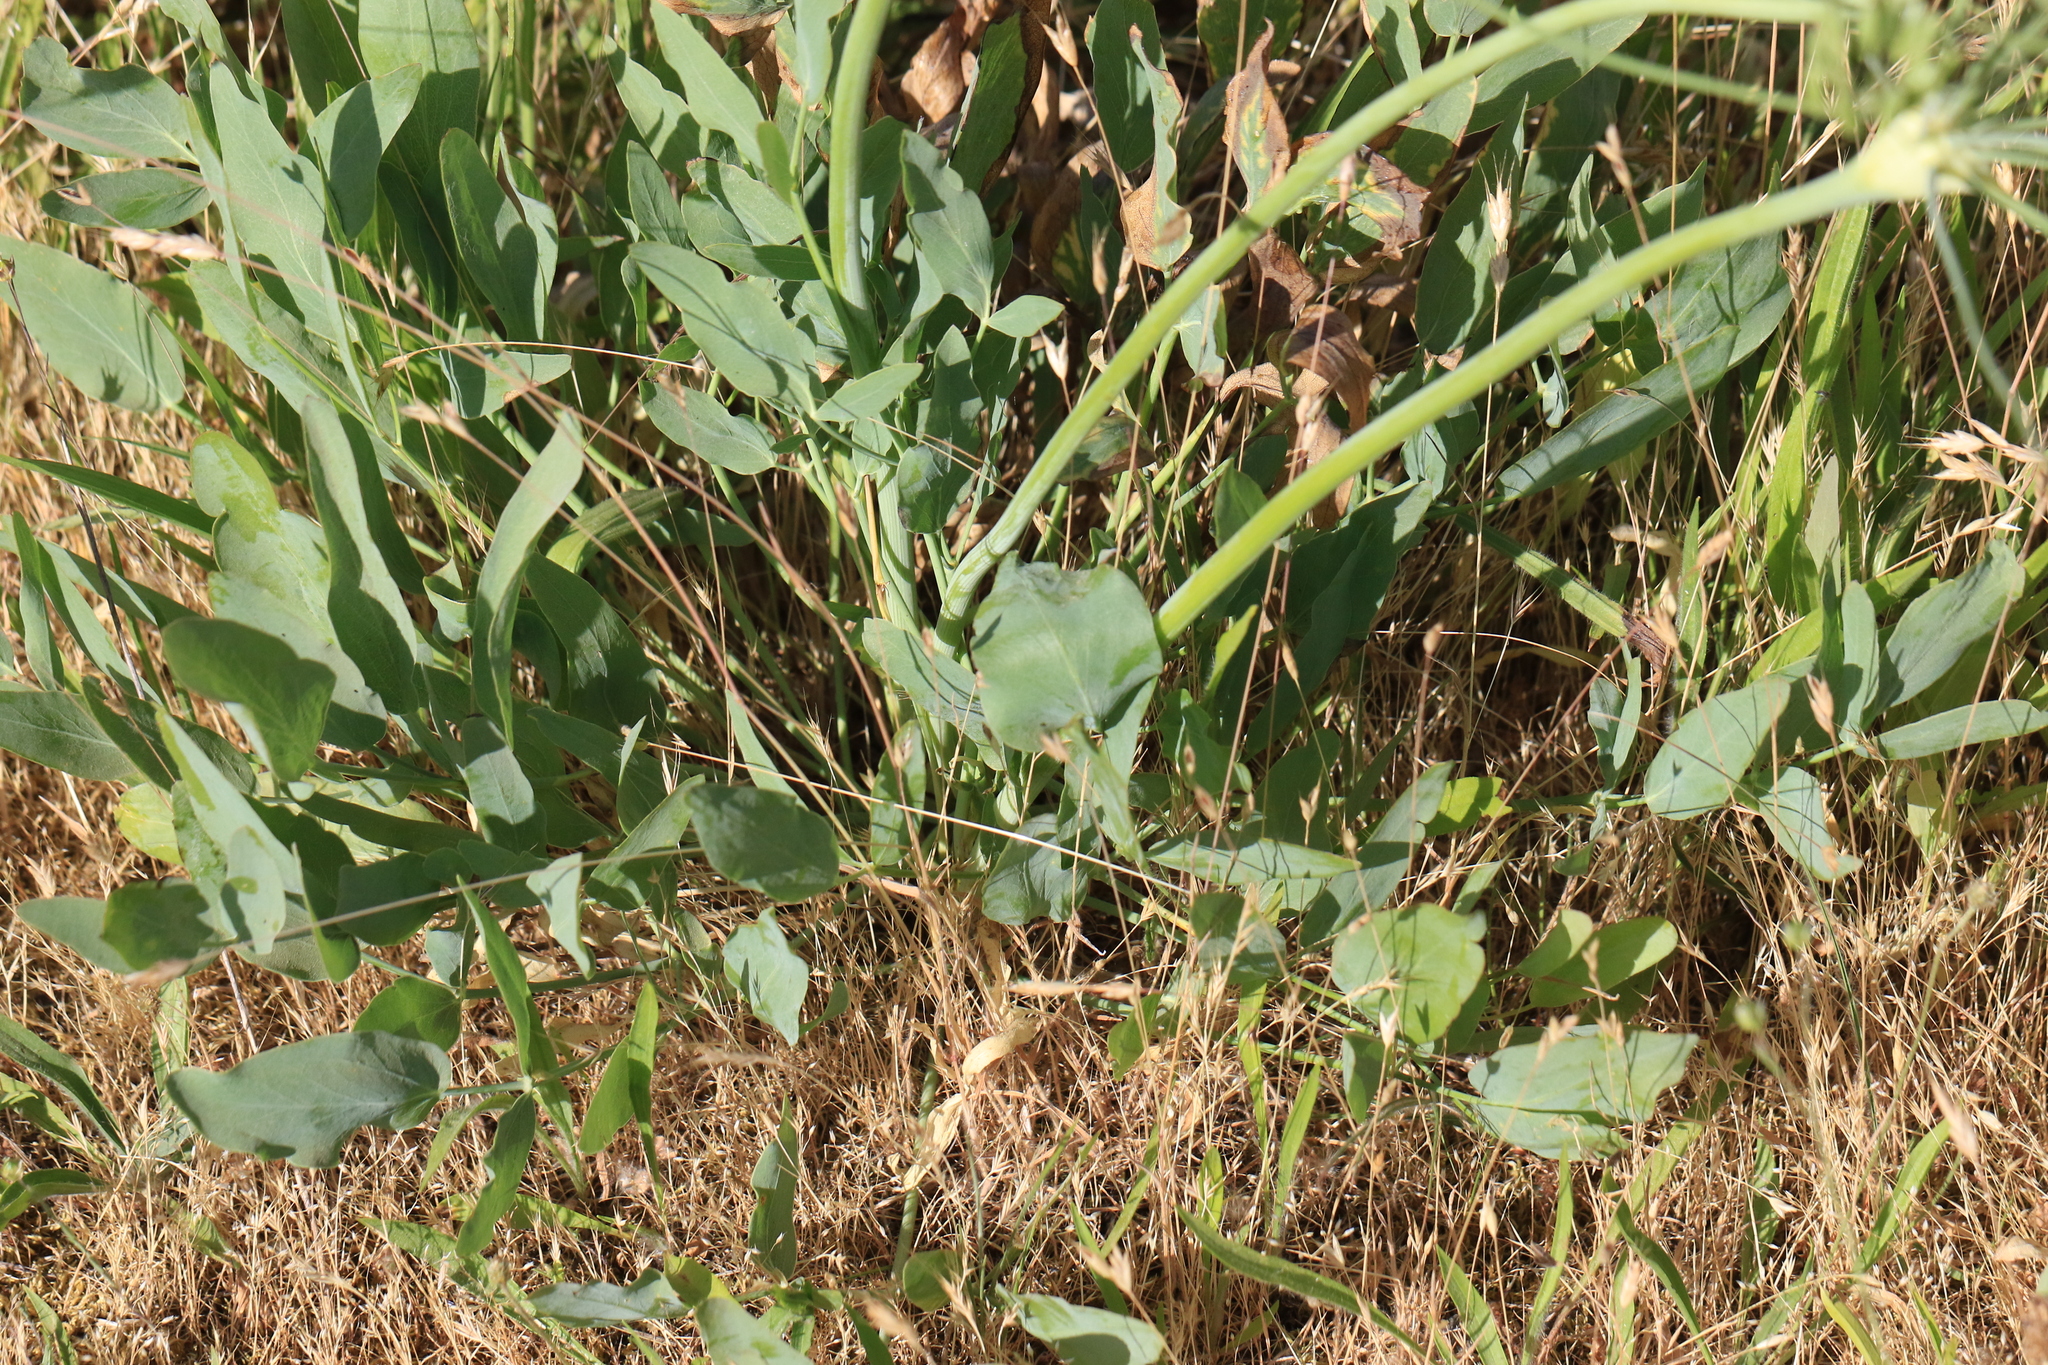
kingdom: Plantae
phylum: Tracheophyta
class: Magnoliopsida
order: Apiales
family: Apiaceae
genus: Lomatium
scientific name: Lomatium nudicaule
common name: Pestle lomatium
